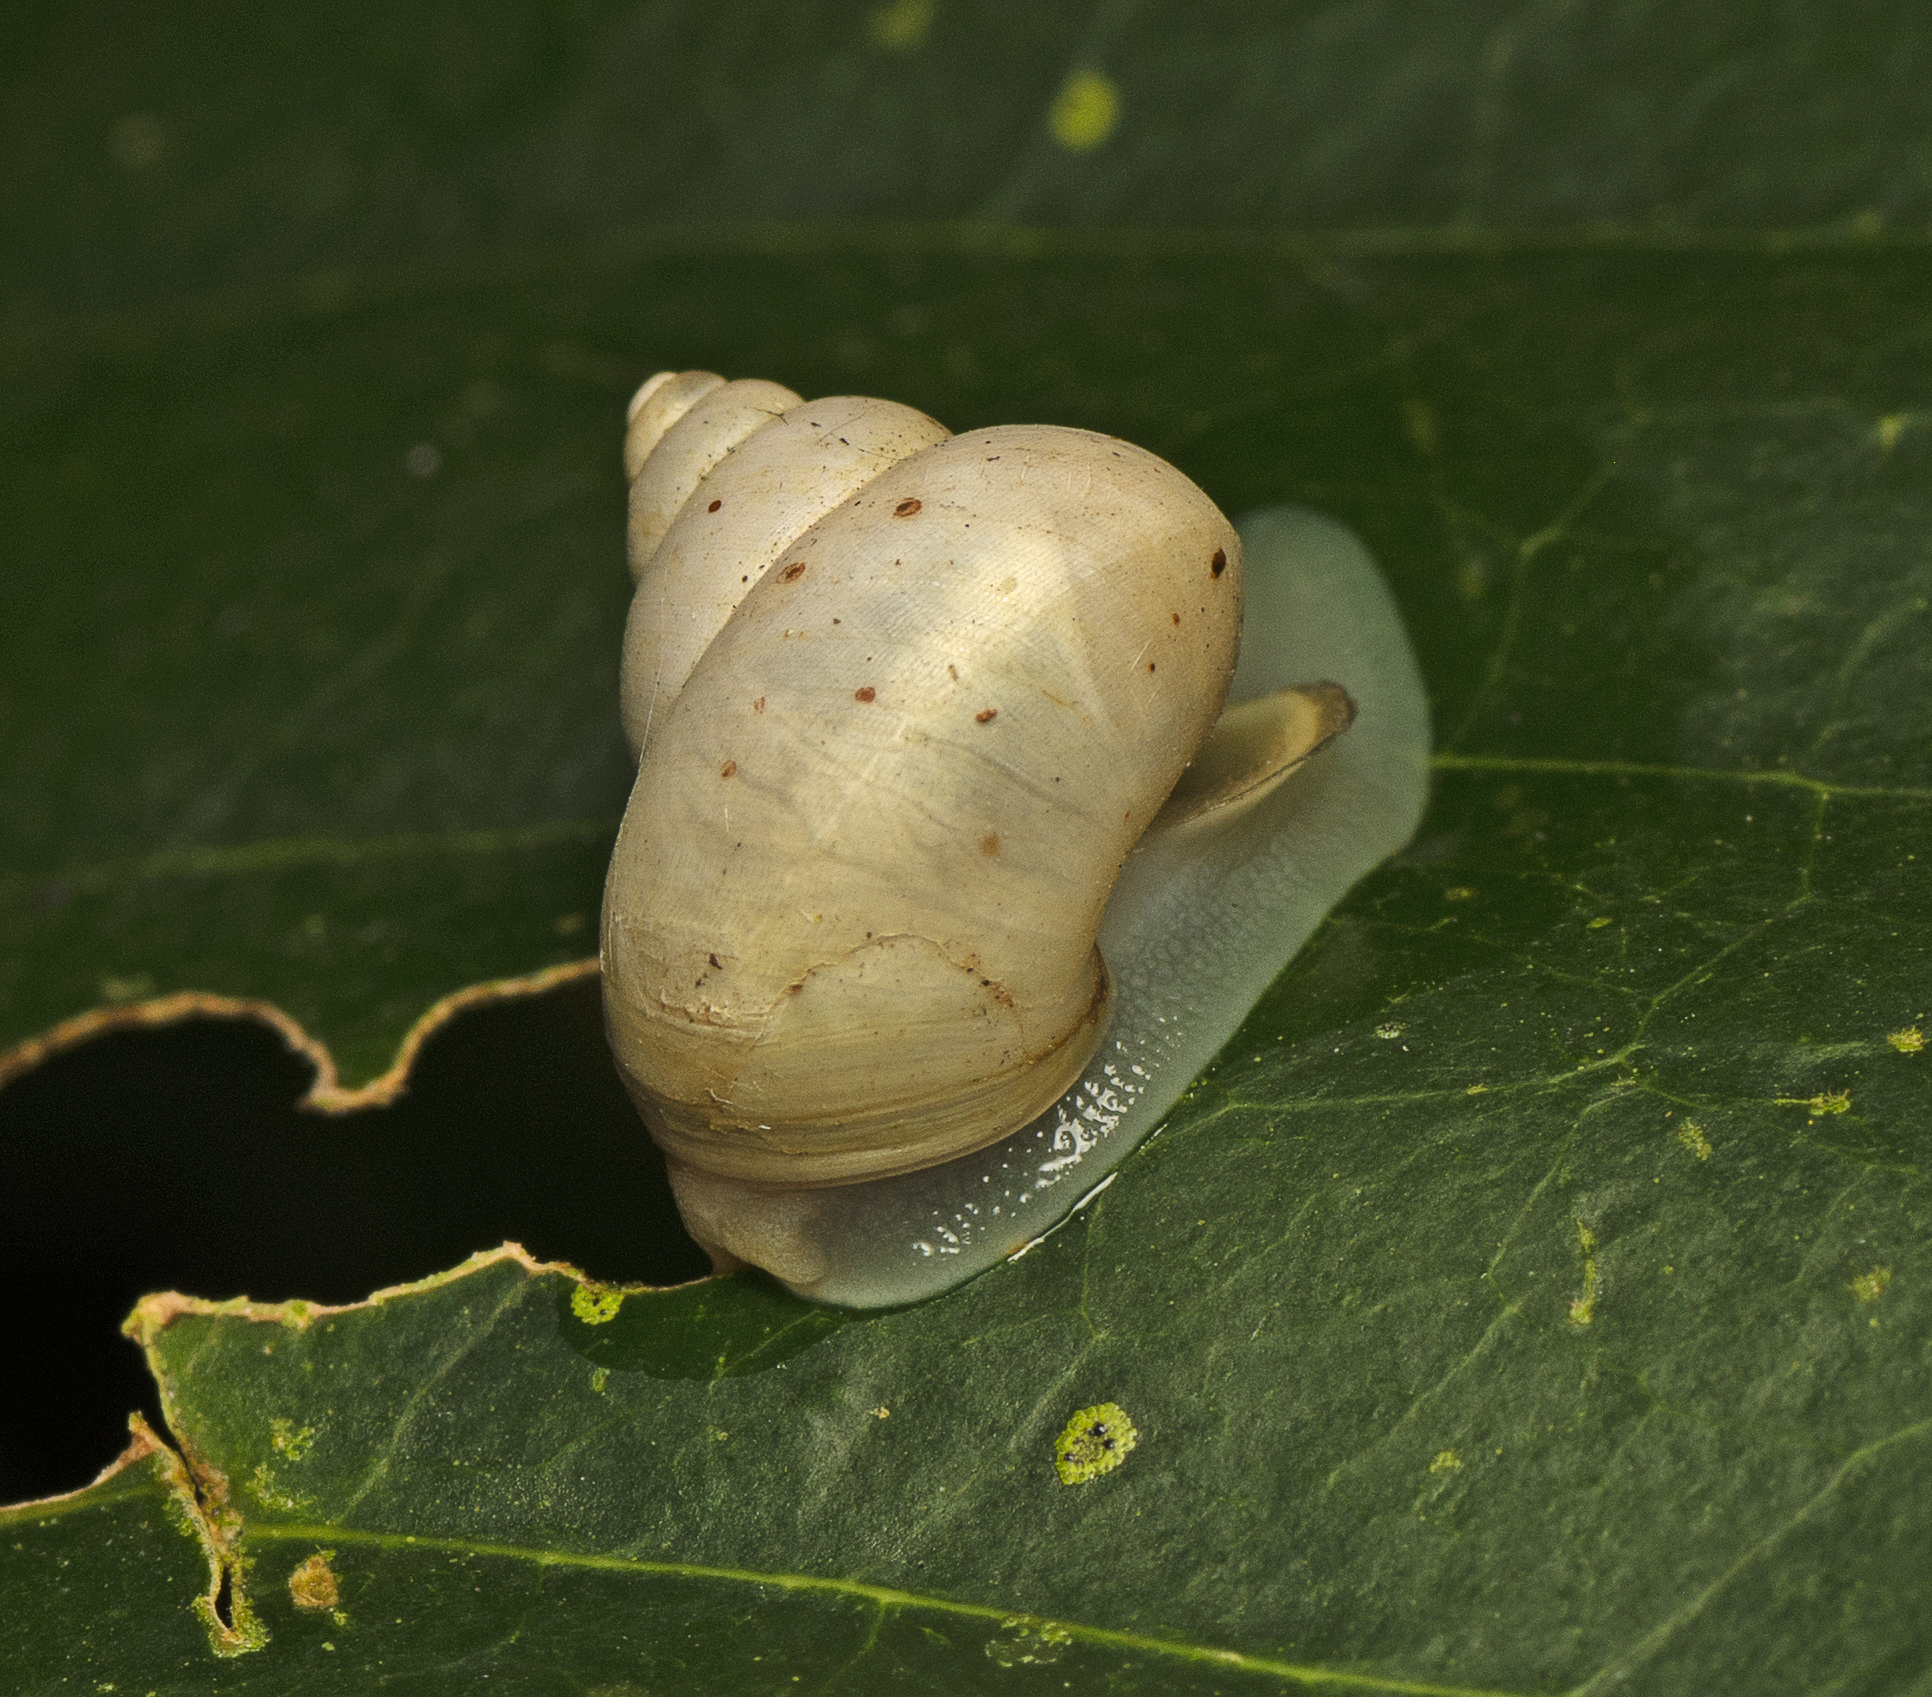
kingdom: Animalia
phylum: Mollusca
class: Gastropoda
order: Architaenioglossa
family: Cyclophoridae
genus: Leptopoma
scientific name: Leptopoma perlucidum
